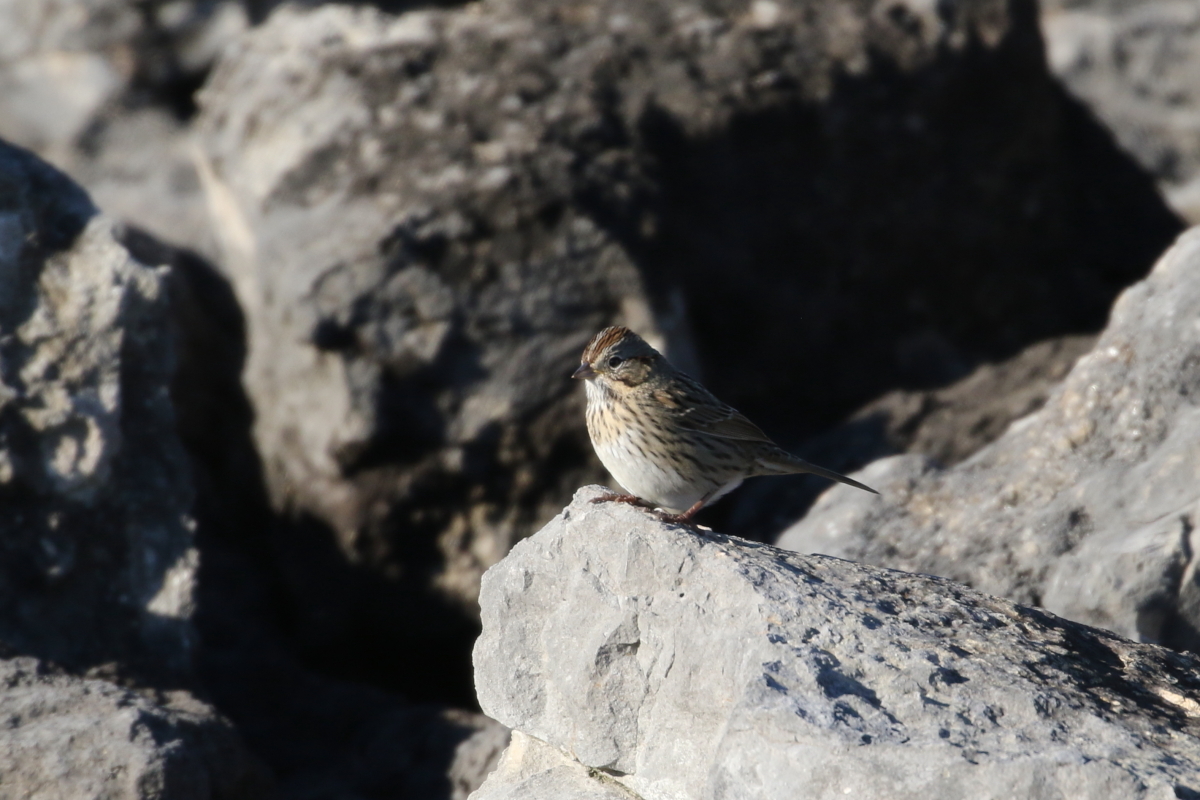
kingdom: Animalia
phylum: Chordata
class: Aves
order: Passeriformes
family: Passerellidae
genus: Melospiza
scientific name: Melospiza lincolnii
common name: Lincoln's sparrow
